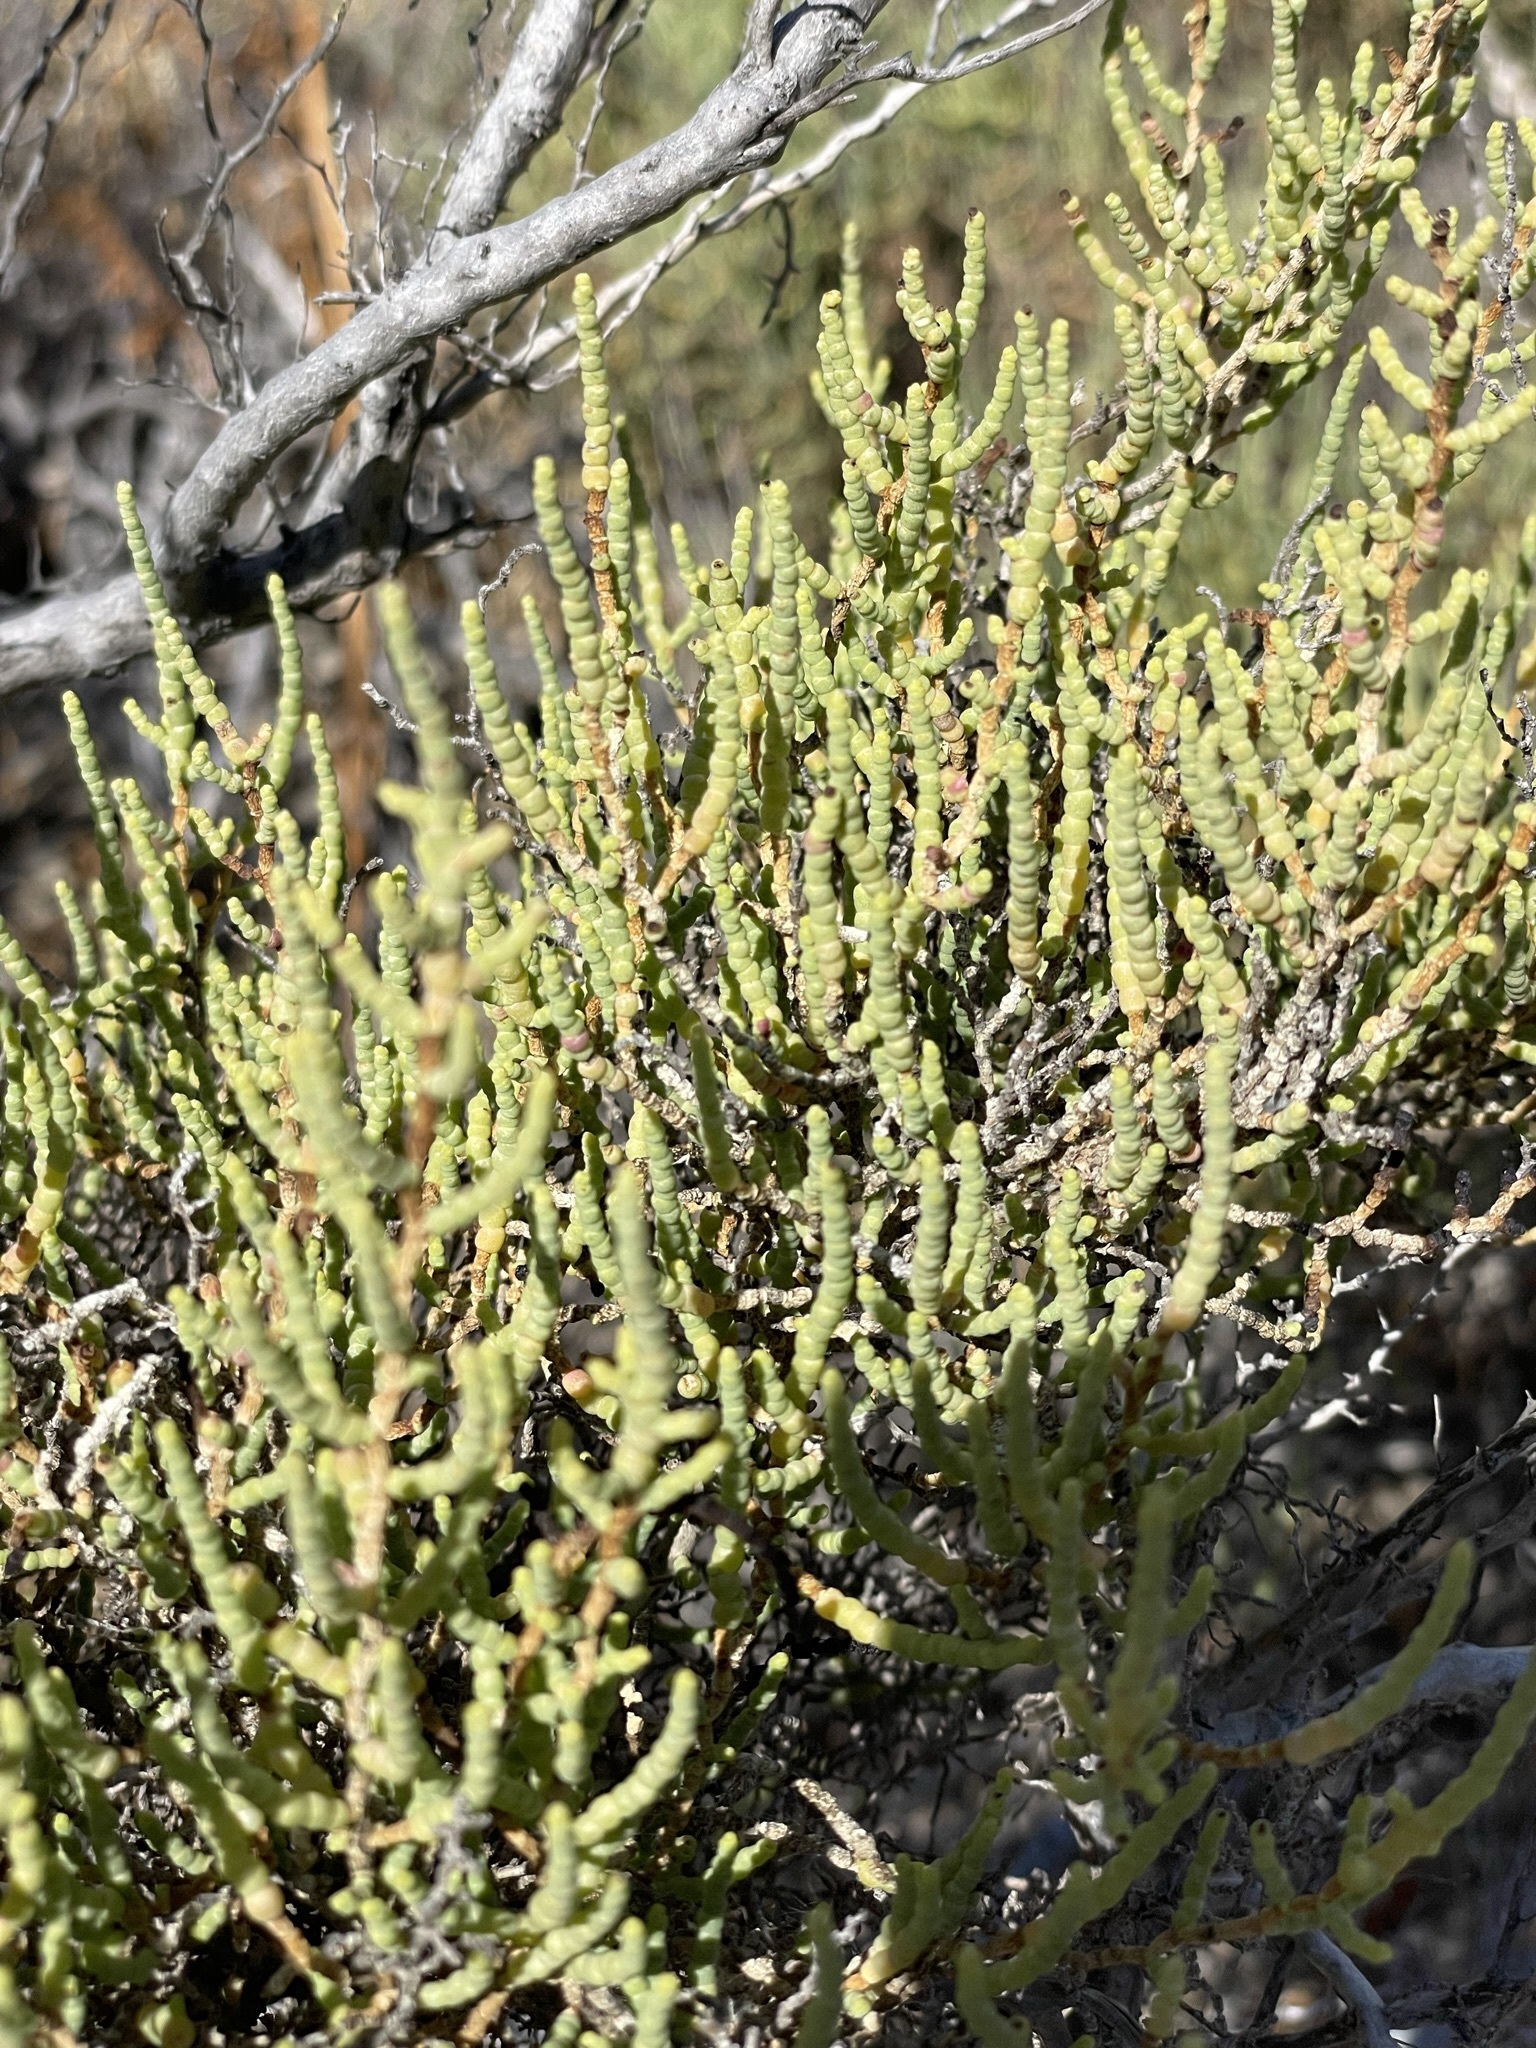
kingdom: Plantae
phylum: Tracheophyta
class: Magnoliopsida
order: Caryophyllales
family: Amaranthaceae
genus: Allenrolfea
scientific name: Allenrolfea occidentalis
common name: Iodine-bush
